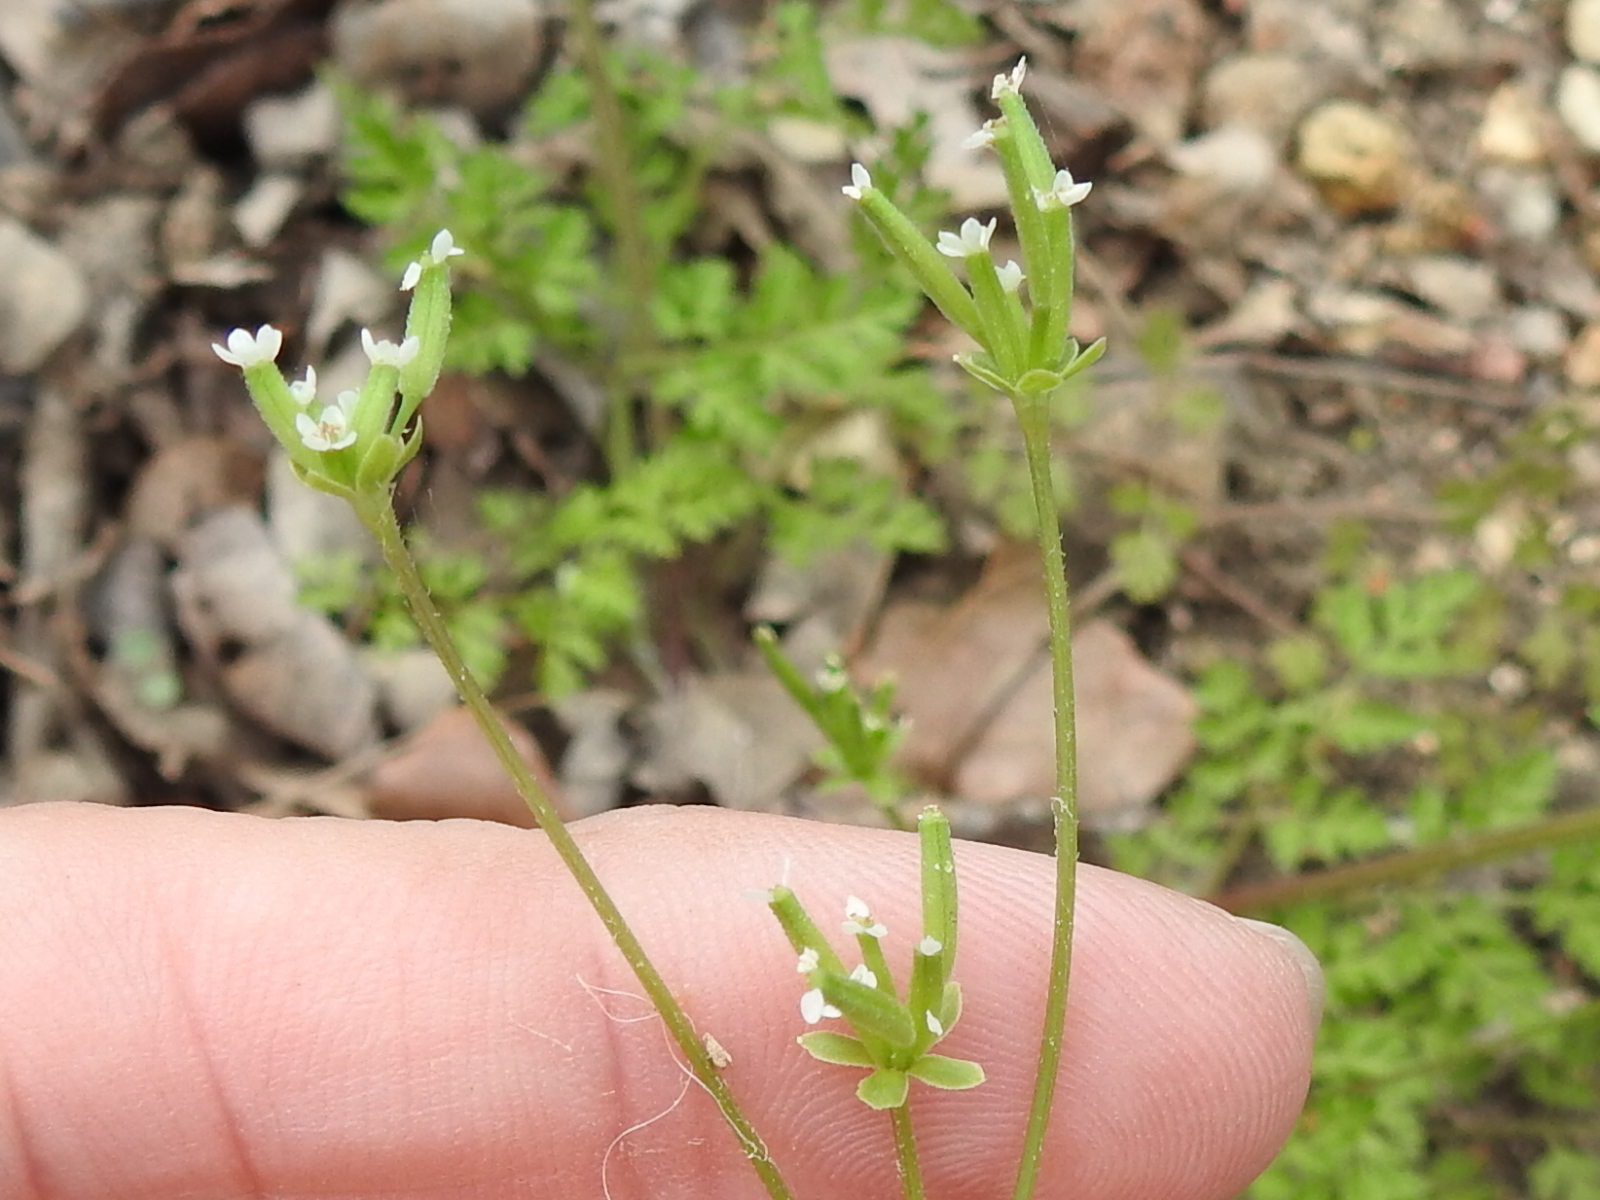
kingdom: Plantae
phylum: Tracheophyta
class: Magnoliopsida
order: Apiales
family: Apiaceae
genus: Chaerophyllum
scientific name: Chaerophyllum tainturieri
